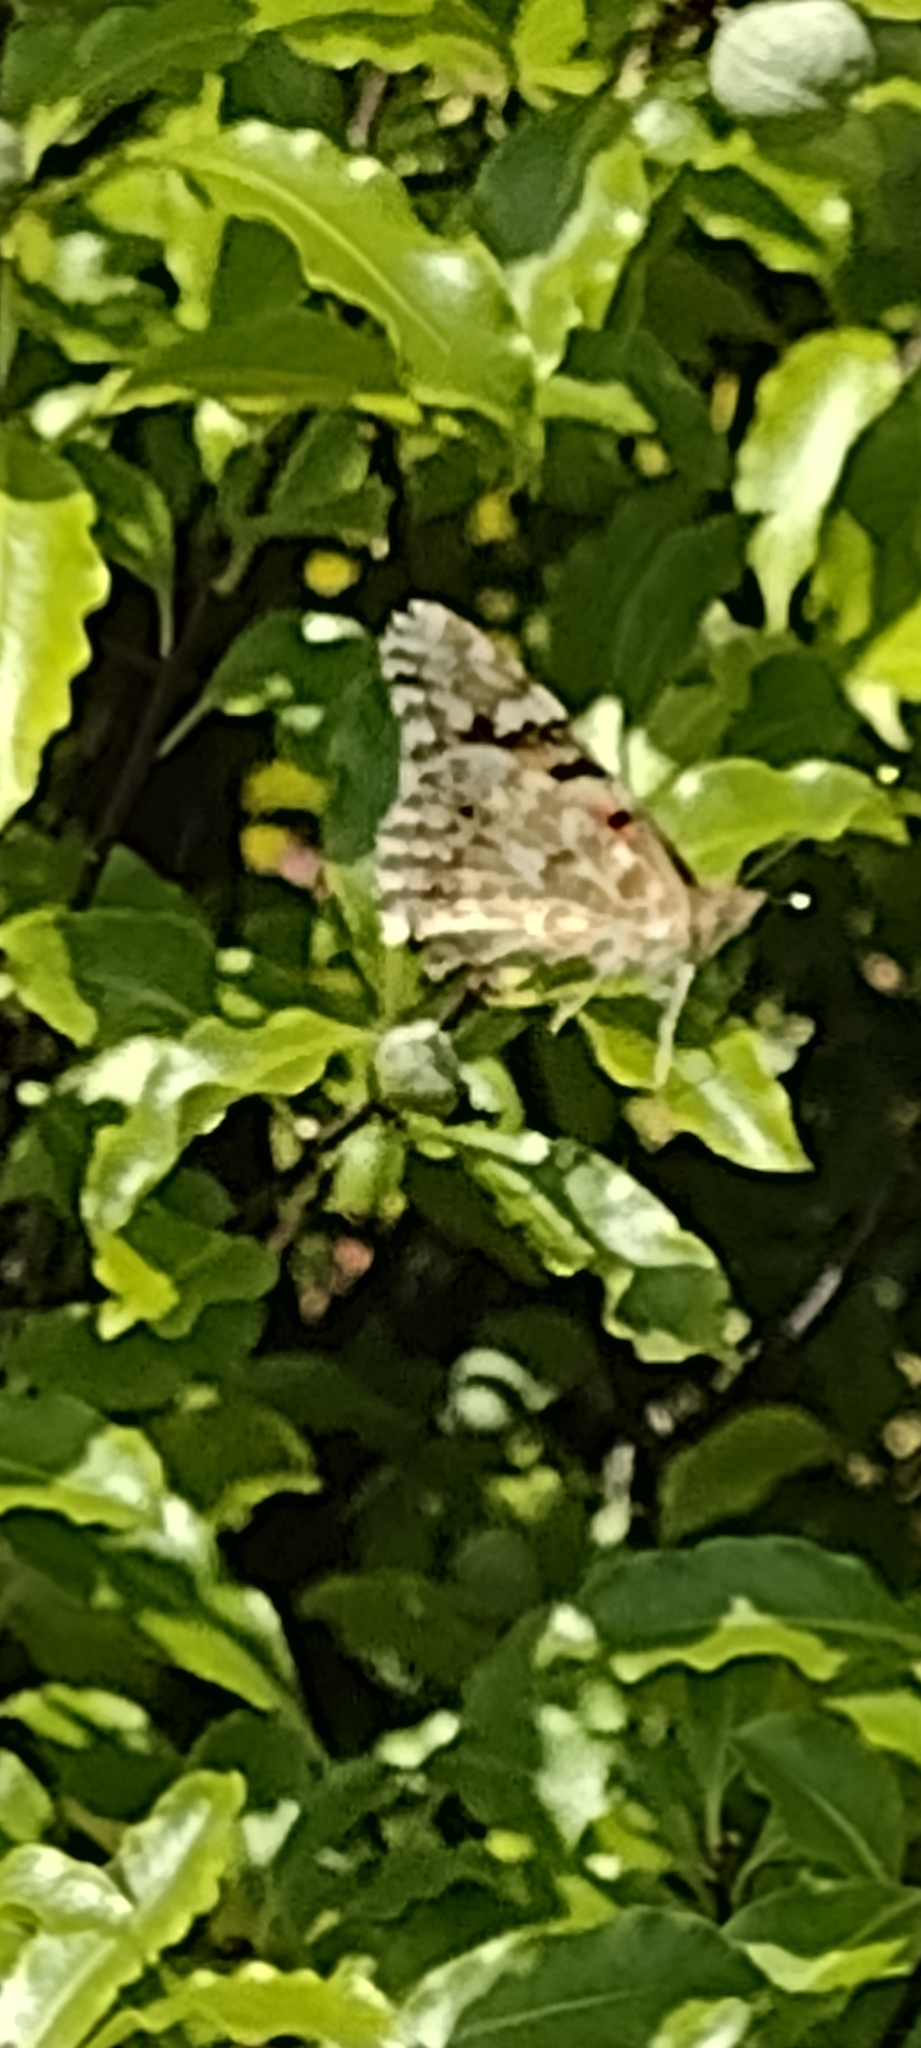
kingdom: Animalia
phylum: Arthropoda
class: Insecta
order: Lepidoptera
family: Nymphalidae
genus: Vanessa
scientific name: Vanessa cardui
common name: Painted lady
